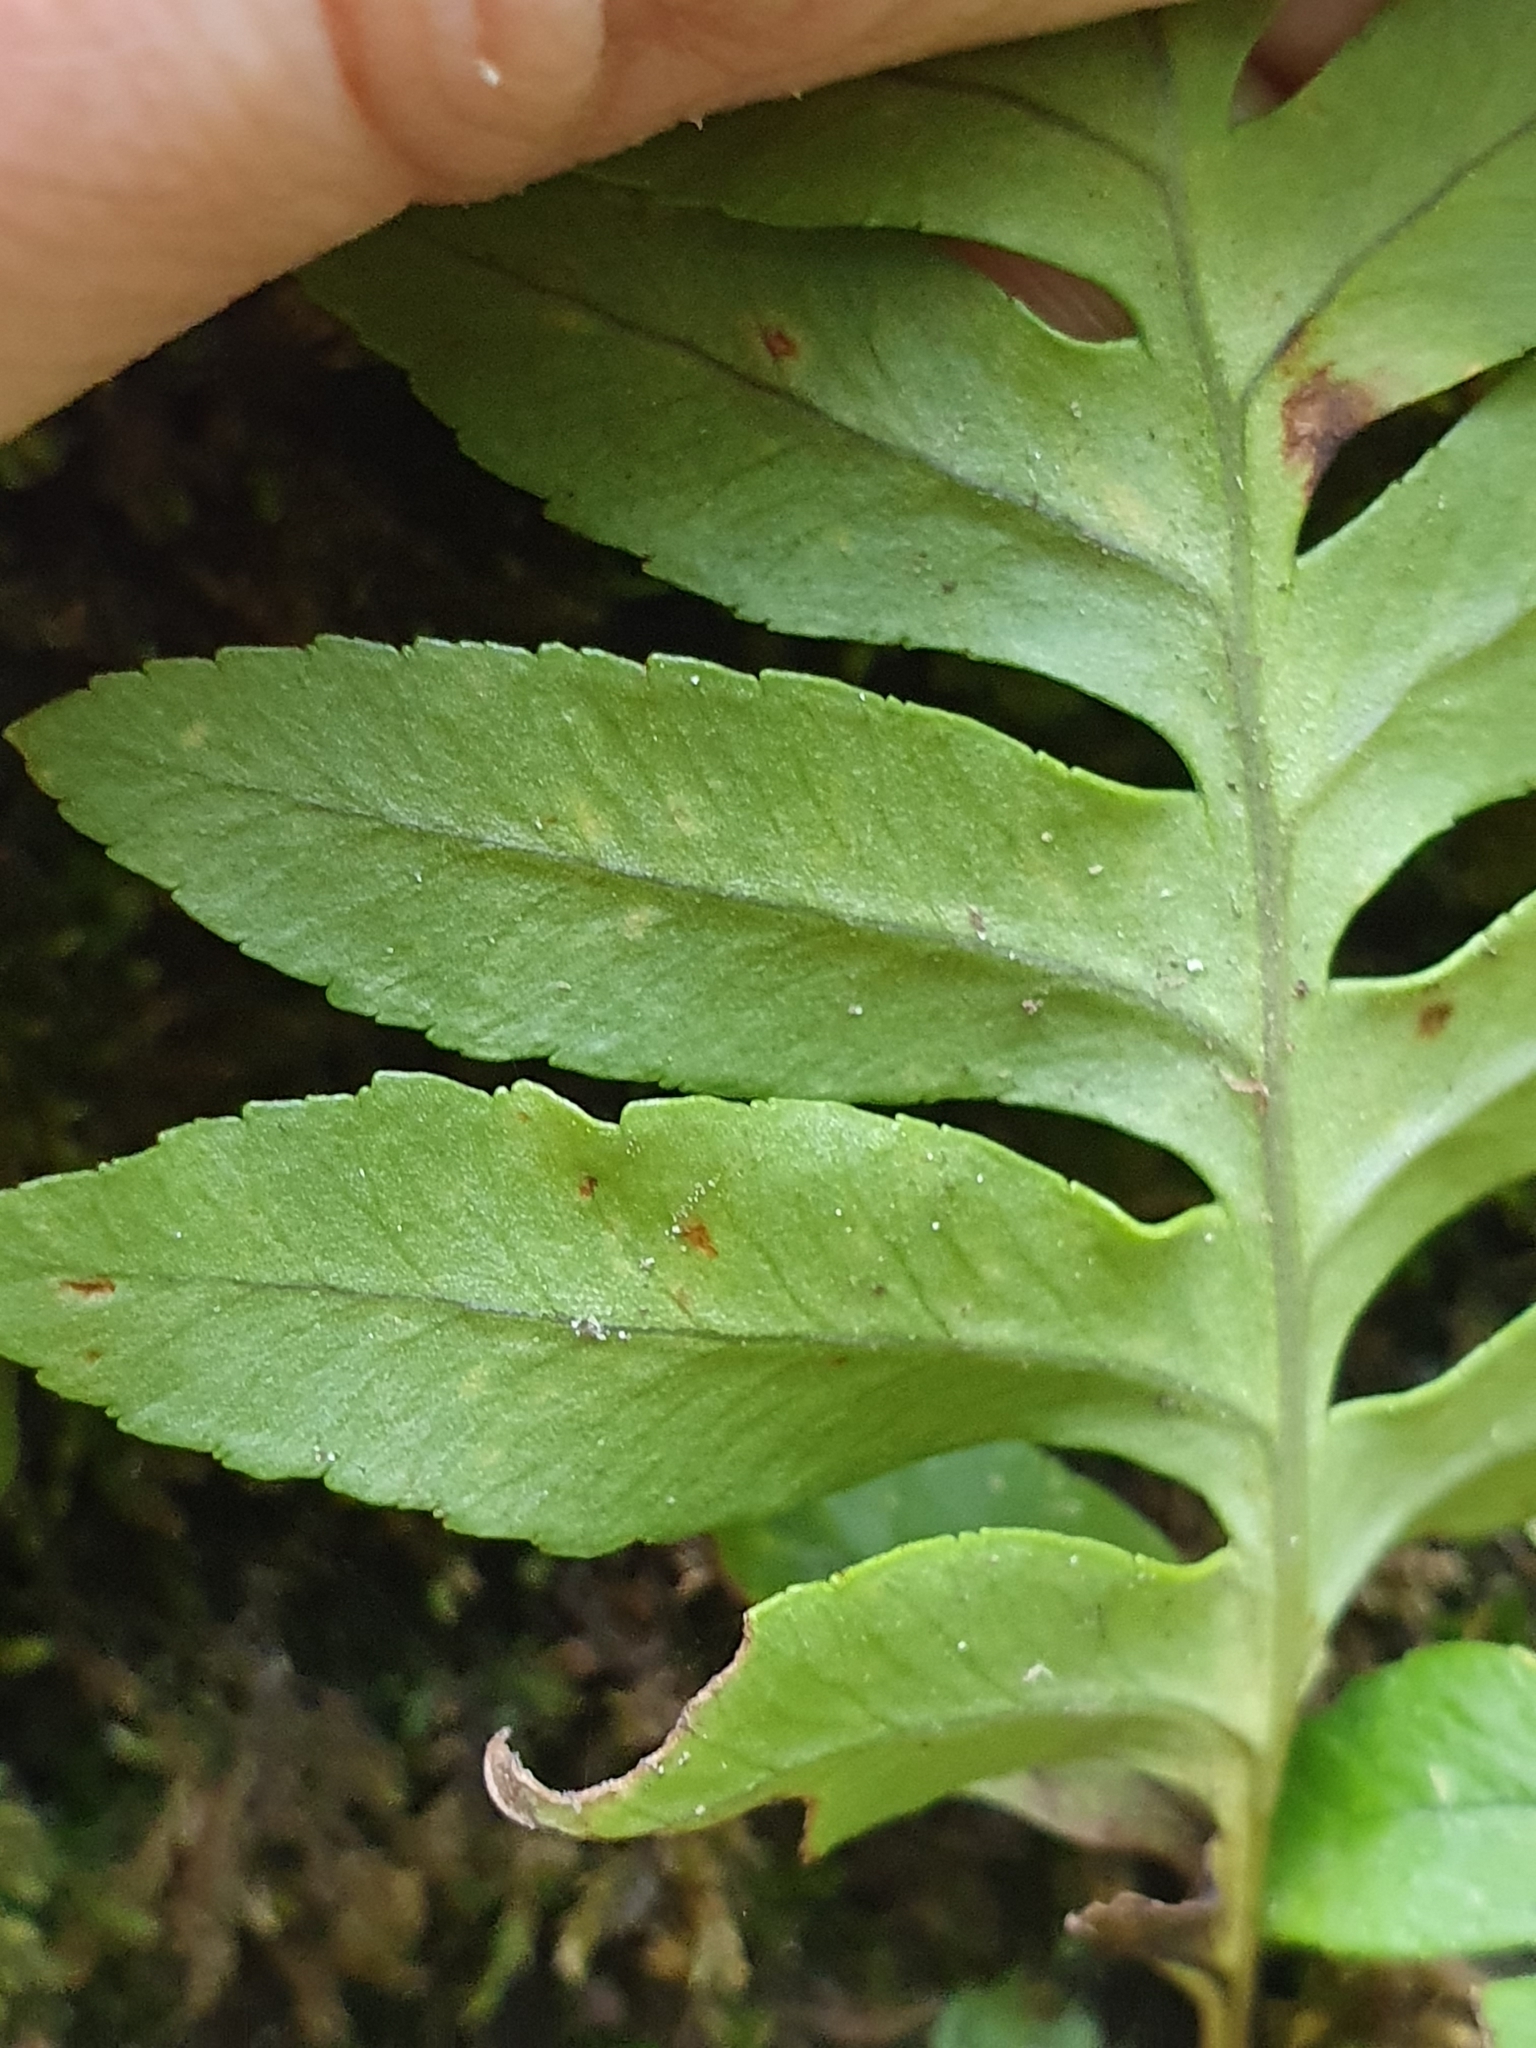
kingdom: Plantae
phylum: Tracheophyta
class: Polypodiopsida
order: Polypodiales
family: Polypodiaceae
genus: Polypodium
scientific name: Polypodium cambricum
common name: Southern polypody
